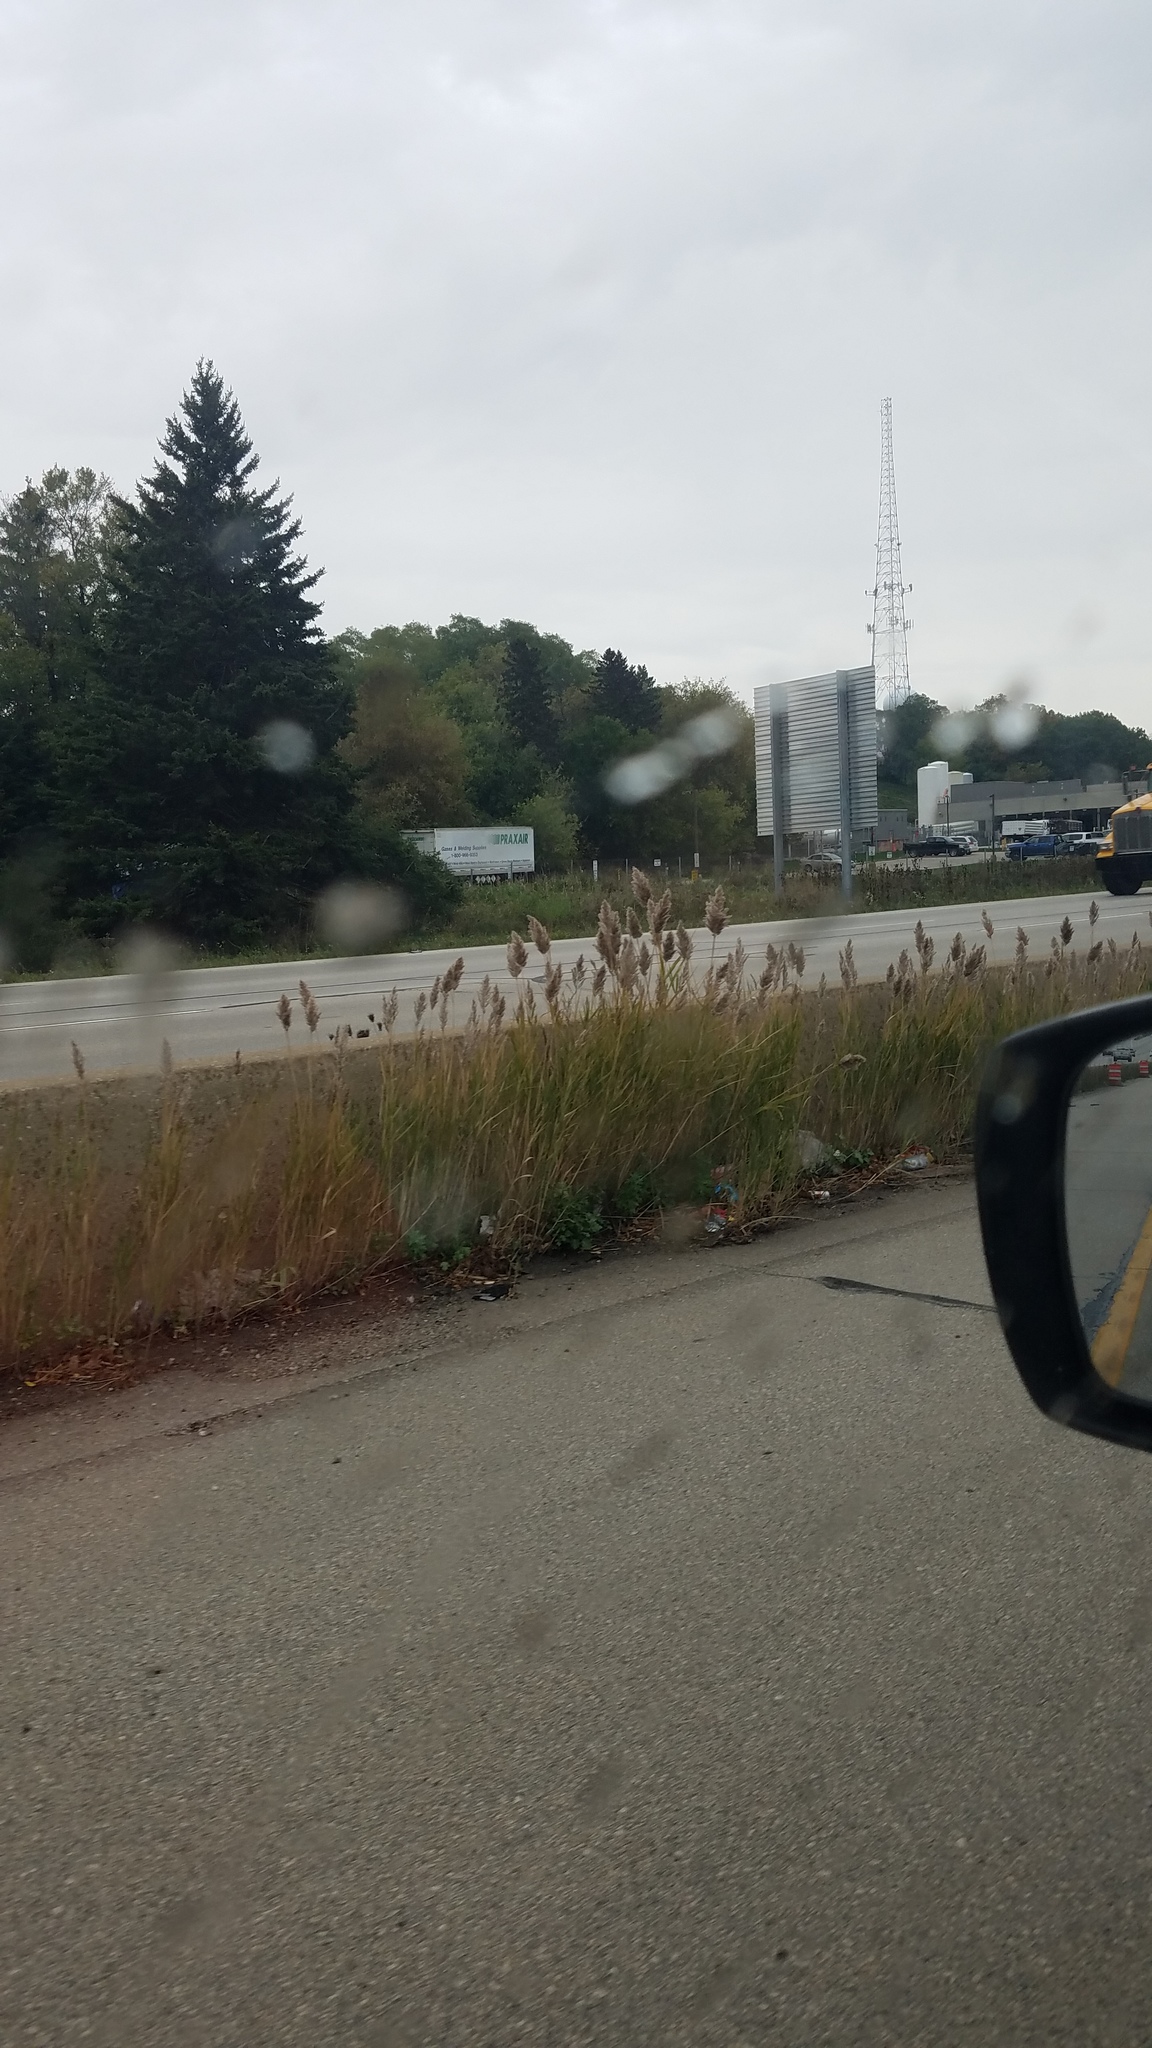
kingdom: Plantae
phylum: Tracheophyta
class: Liliopsida
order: Poales
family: Poaceae
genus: Phragmites
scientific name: Phragmites australis
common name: Common reed
